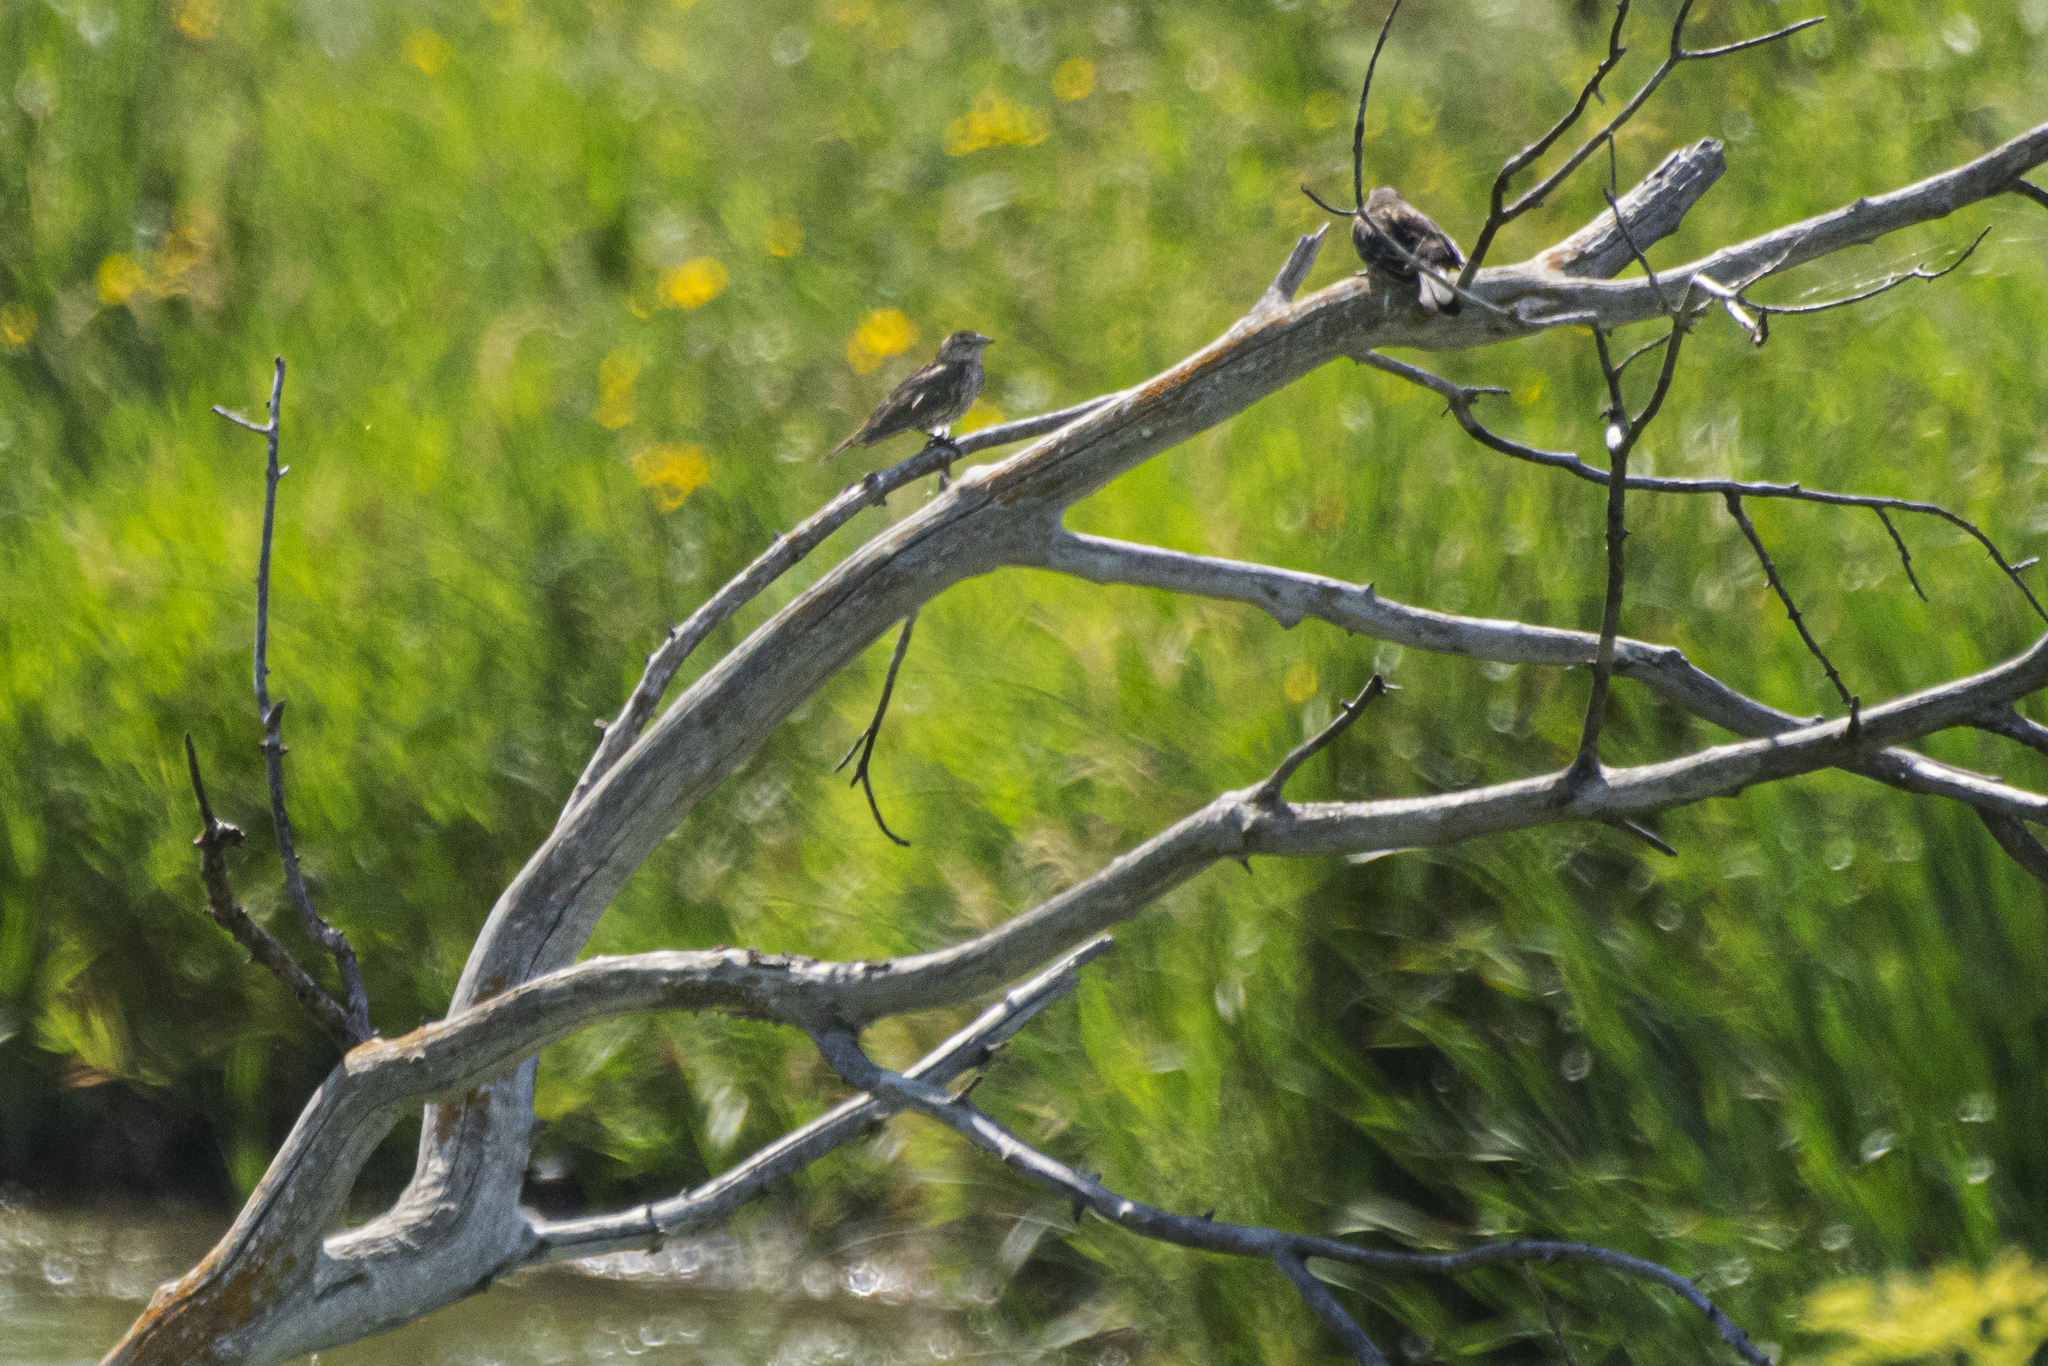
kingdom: Animalia
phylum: Chordata
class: Aves
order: Passeriformes
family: Icteridae
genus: Agelaius
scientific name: Agelaius phoeniceus
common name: Red-winged blackbird
